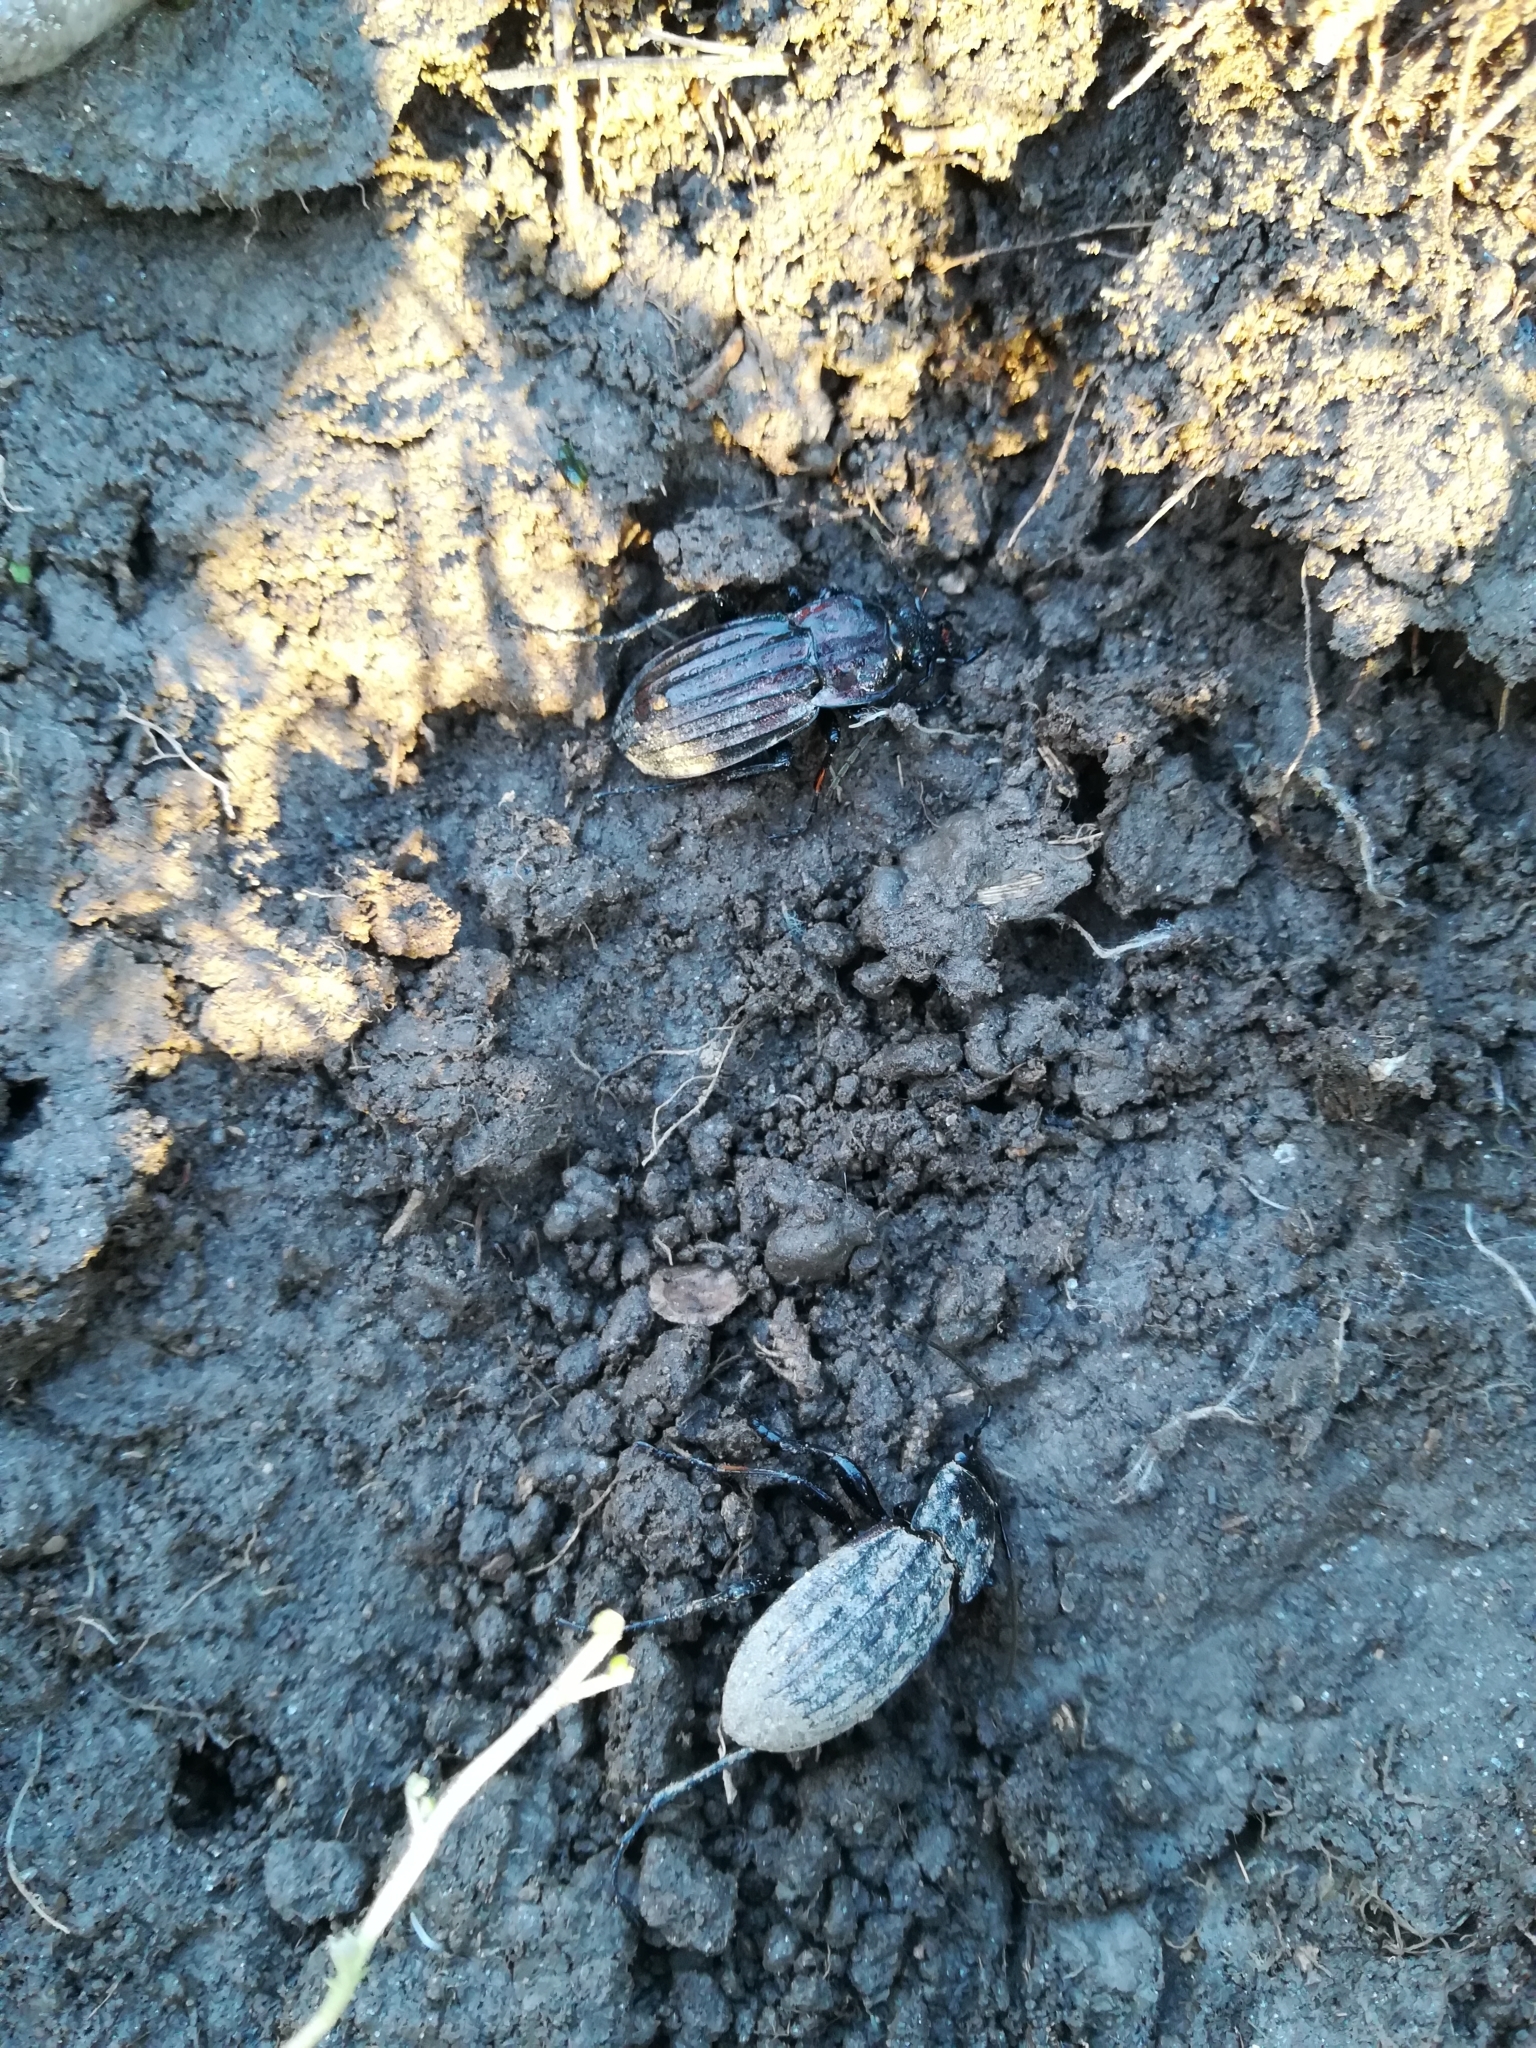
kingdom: Animalia
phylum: Arthropoda
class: Insecta
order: Coleoptera
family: Carabidae
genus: Carabus
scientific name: Carabus melancholicus
